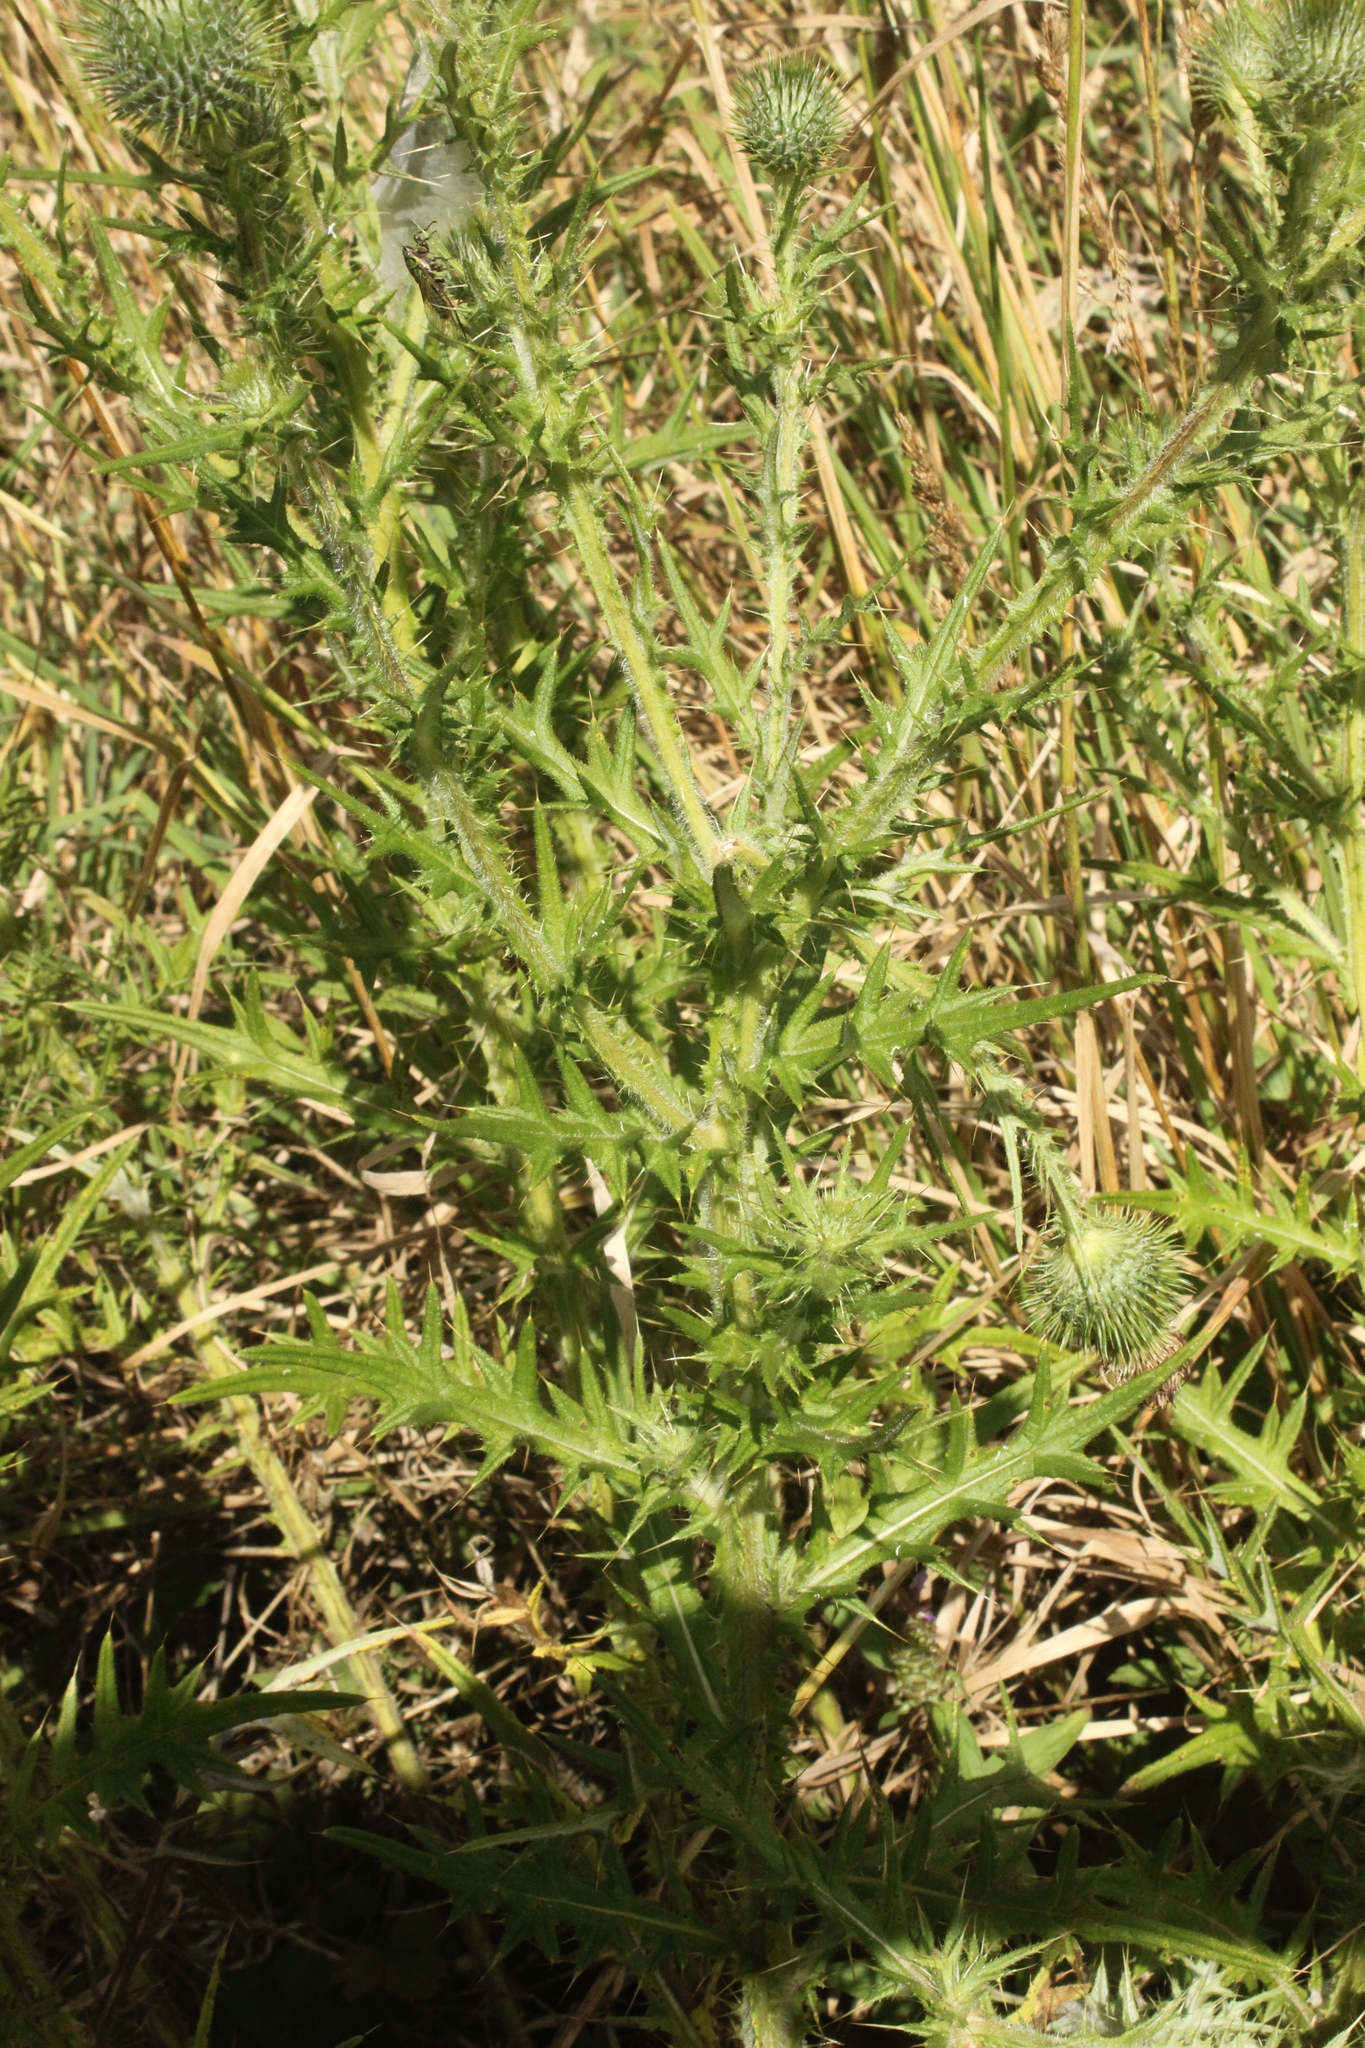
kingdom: Plantae
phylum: Tracheophyta
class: Magnoliopsida
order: Asterales
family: Asteraceae
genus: Cirsium
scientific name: Cirsium vulgare
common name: Bull thistle
